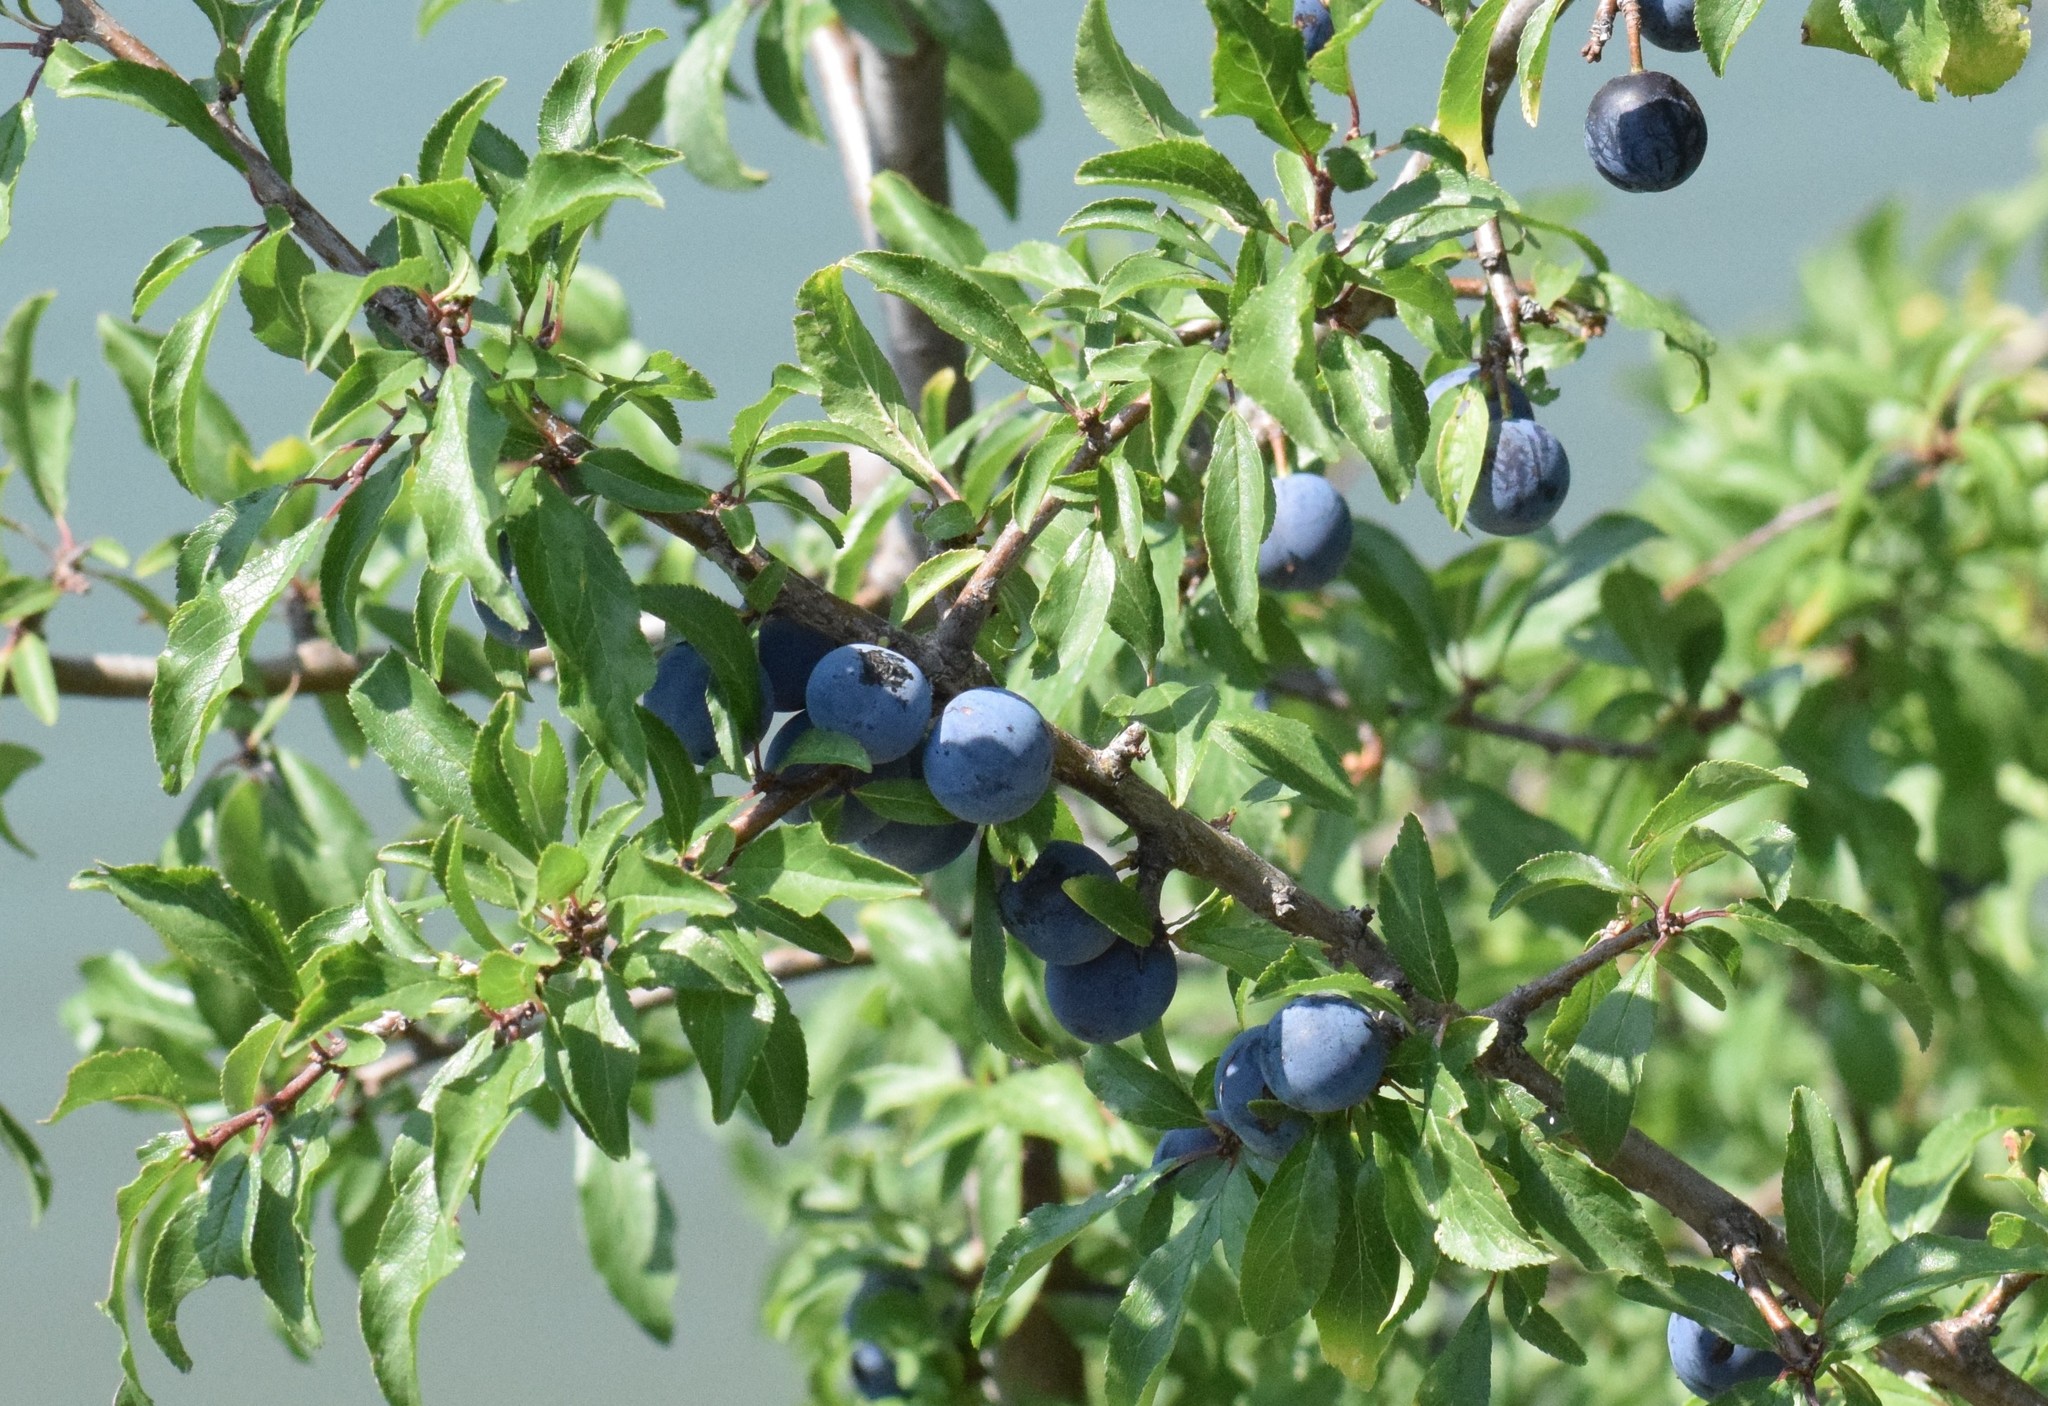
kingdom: Plantae
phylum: Tracheophyta
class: Magnoliopsida
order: Rosales
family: Rosaceae
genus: Prunus
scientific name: Prunus spinosa
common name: Blackthorn
